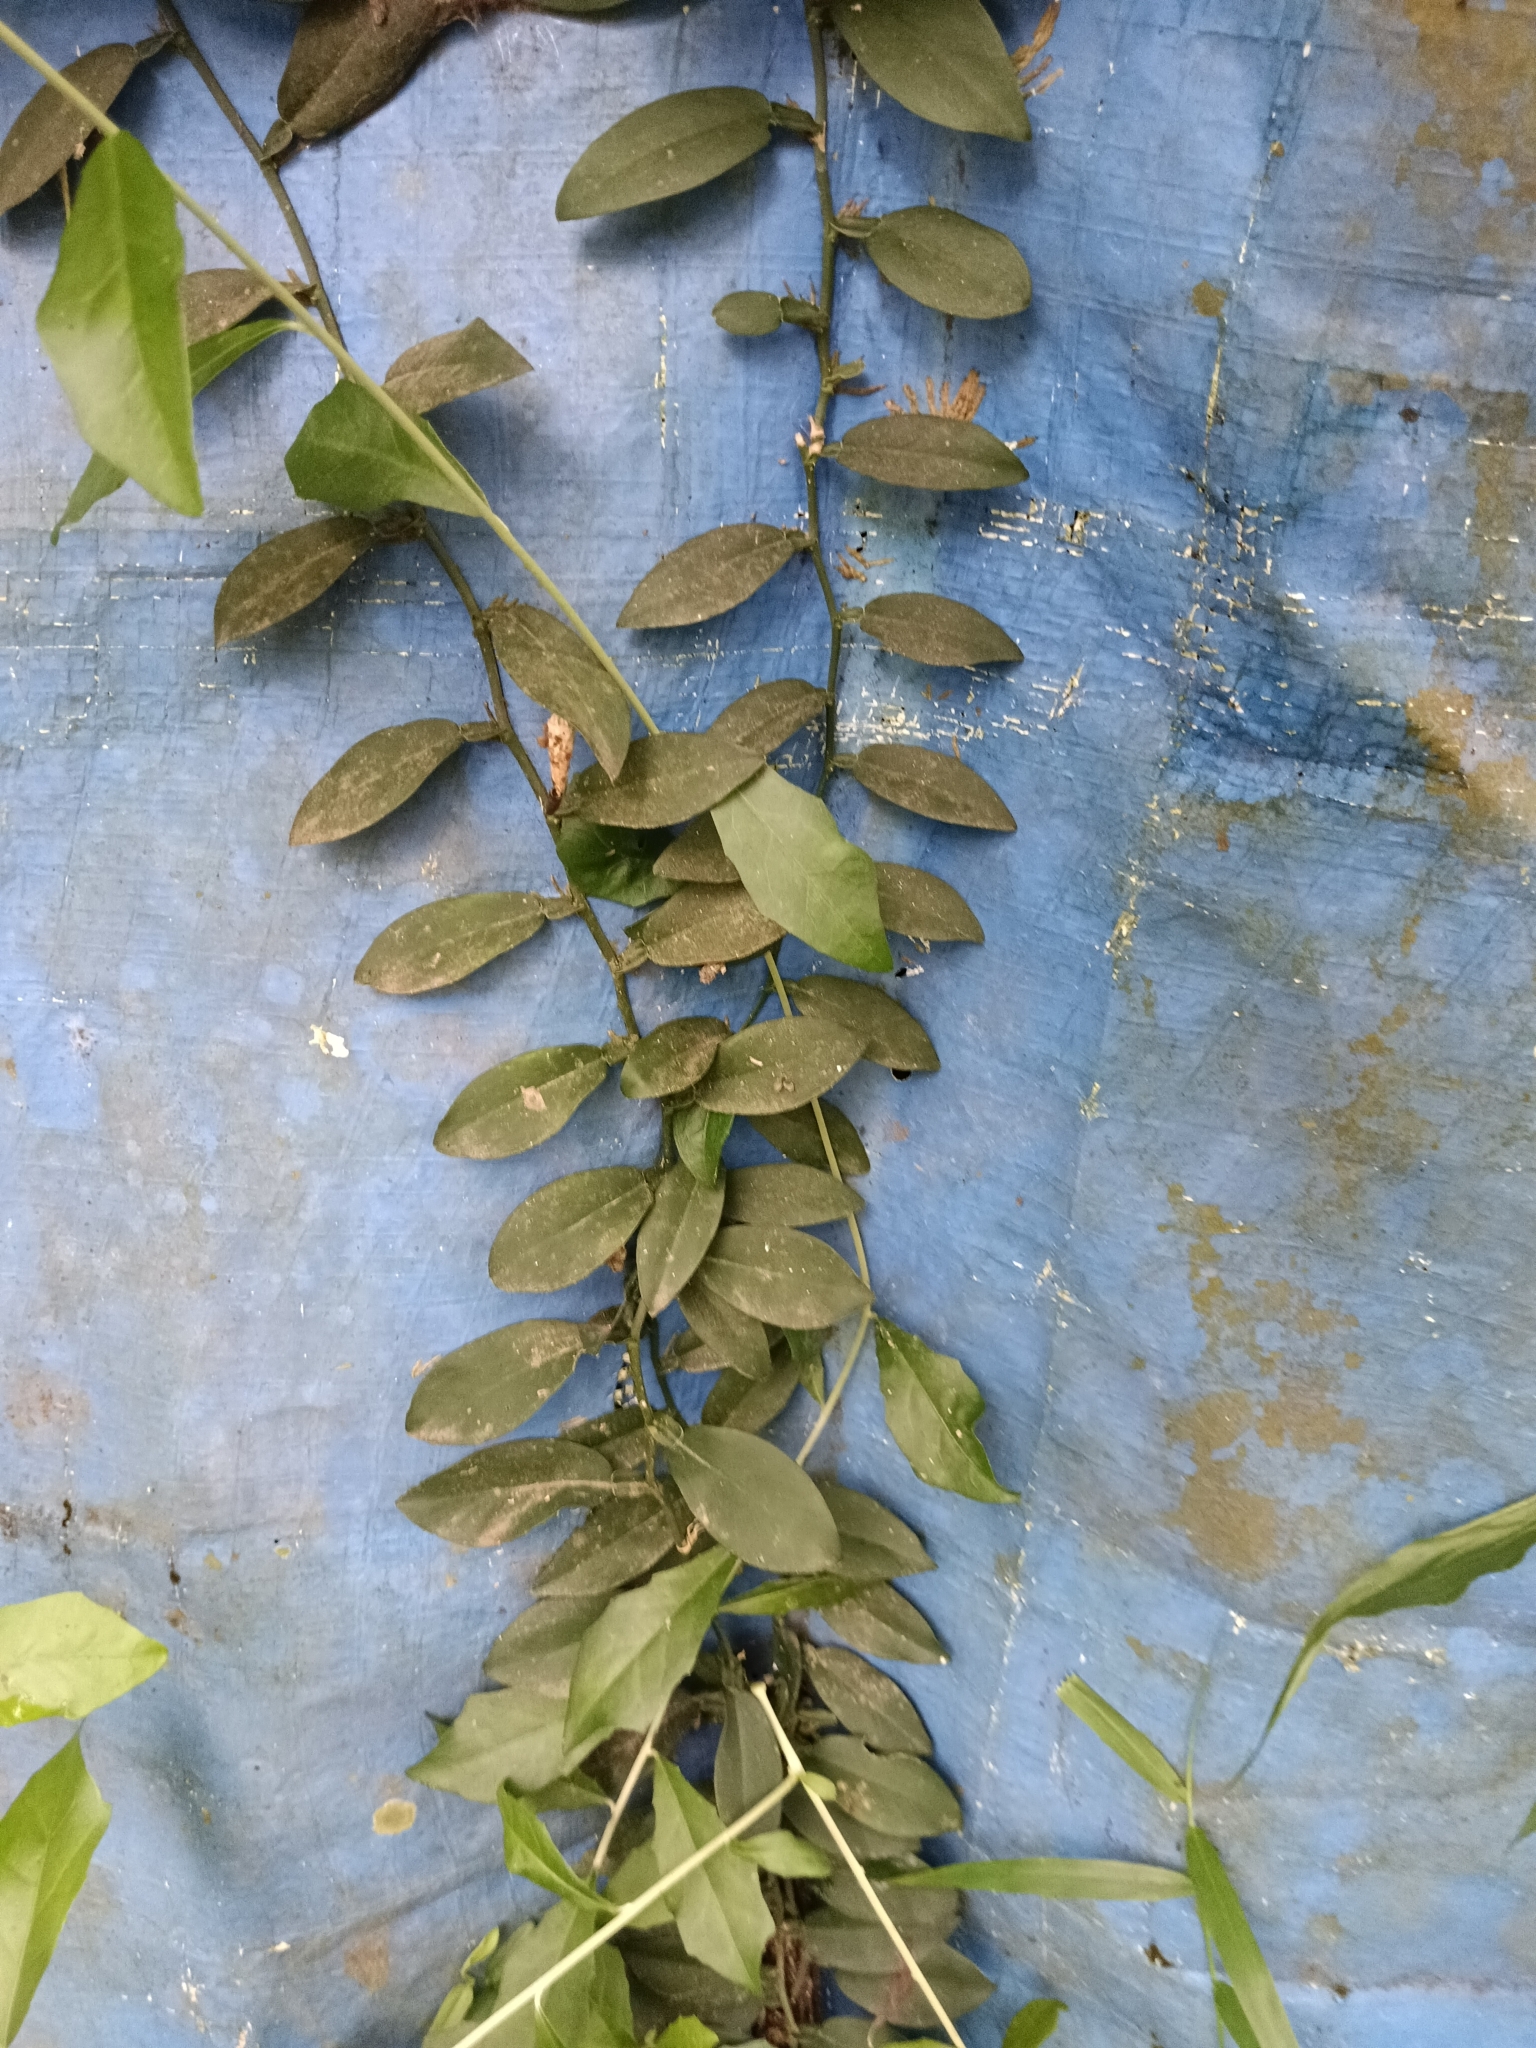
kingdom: Plantae
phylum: Tracheophyta
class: Liliopsida
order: Alismatales
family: Araceae
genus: Pothos
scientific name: Pothos chinensis
